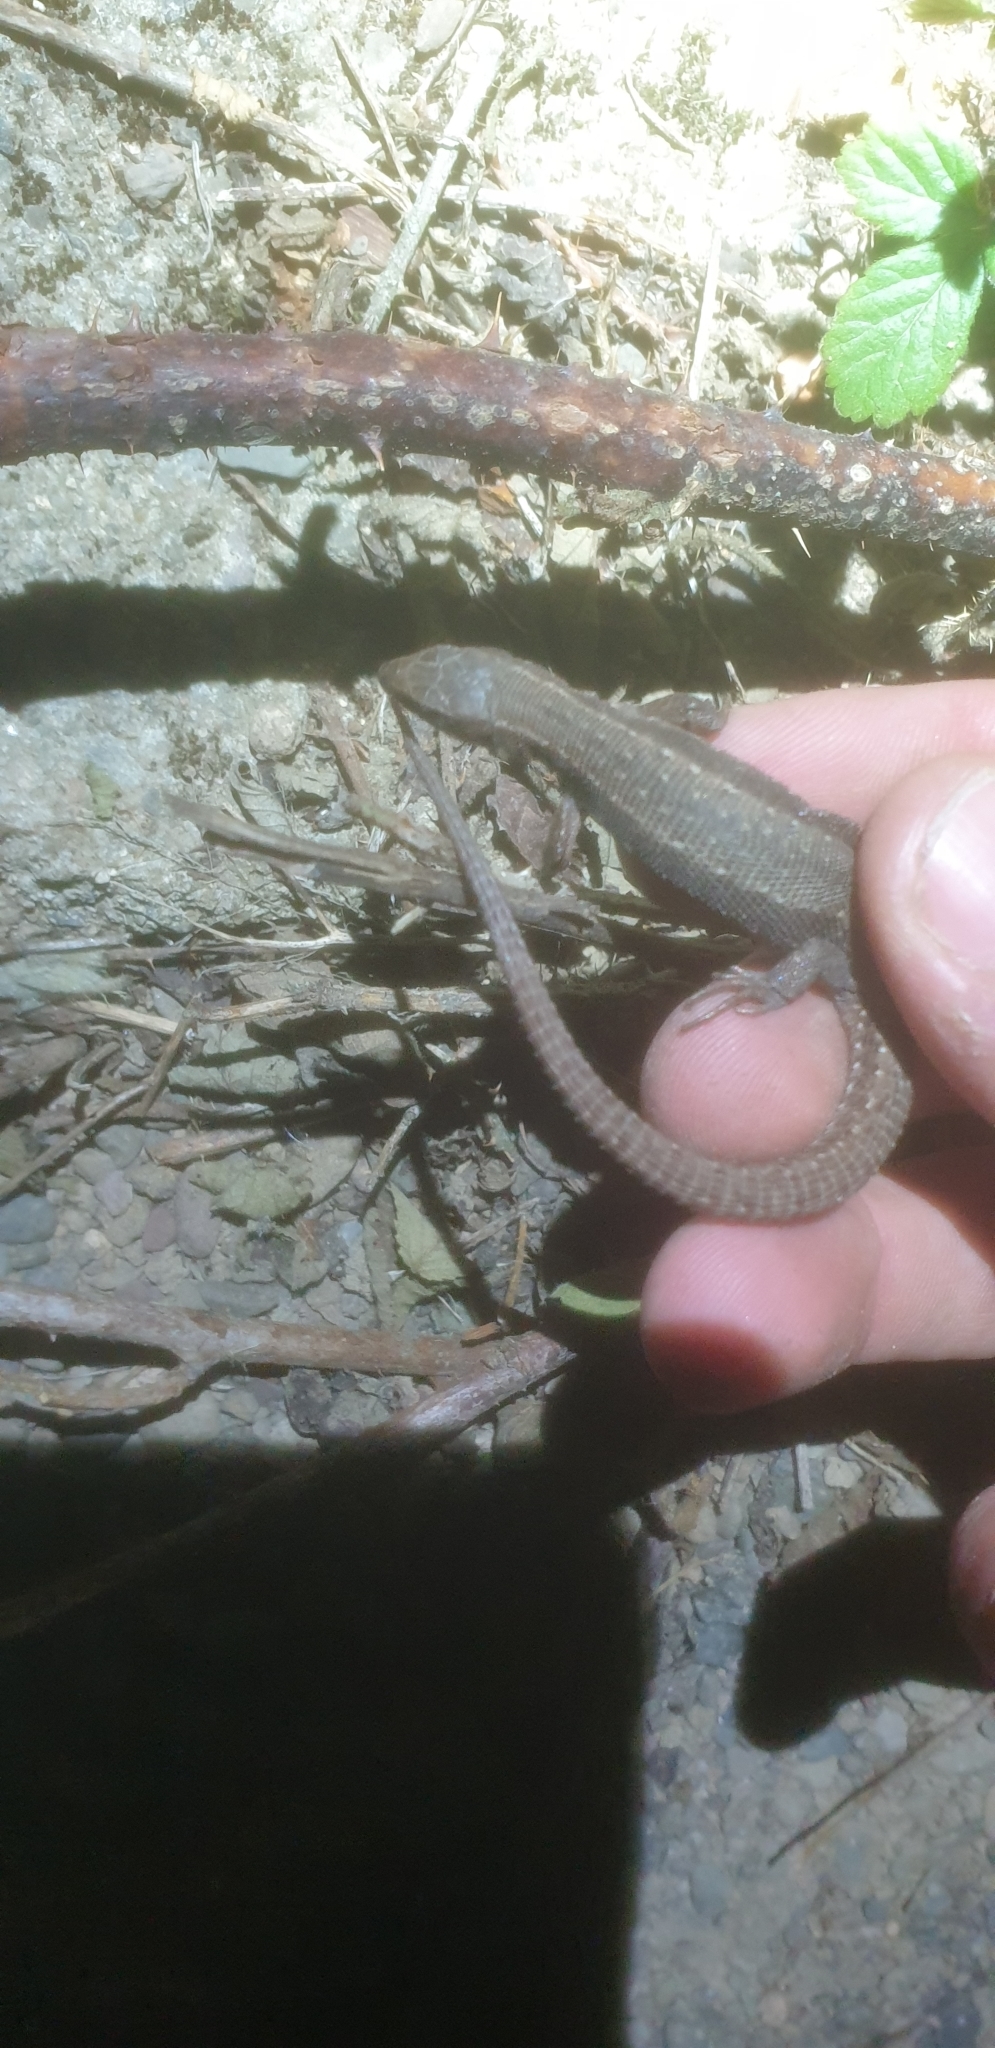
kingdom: Animalia
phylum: Chordata
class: Squamata
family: Lacertidae
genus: Zootoca
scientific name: Zootoca vivipara
